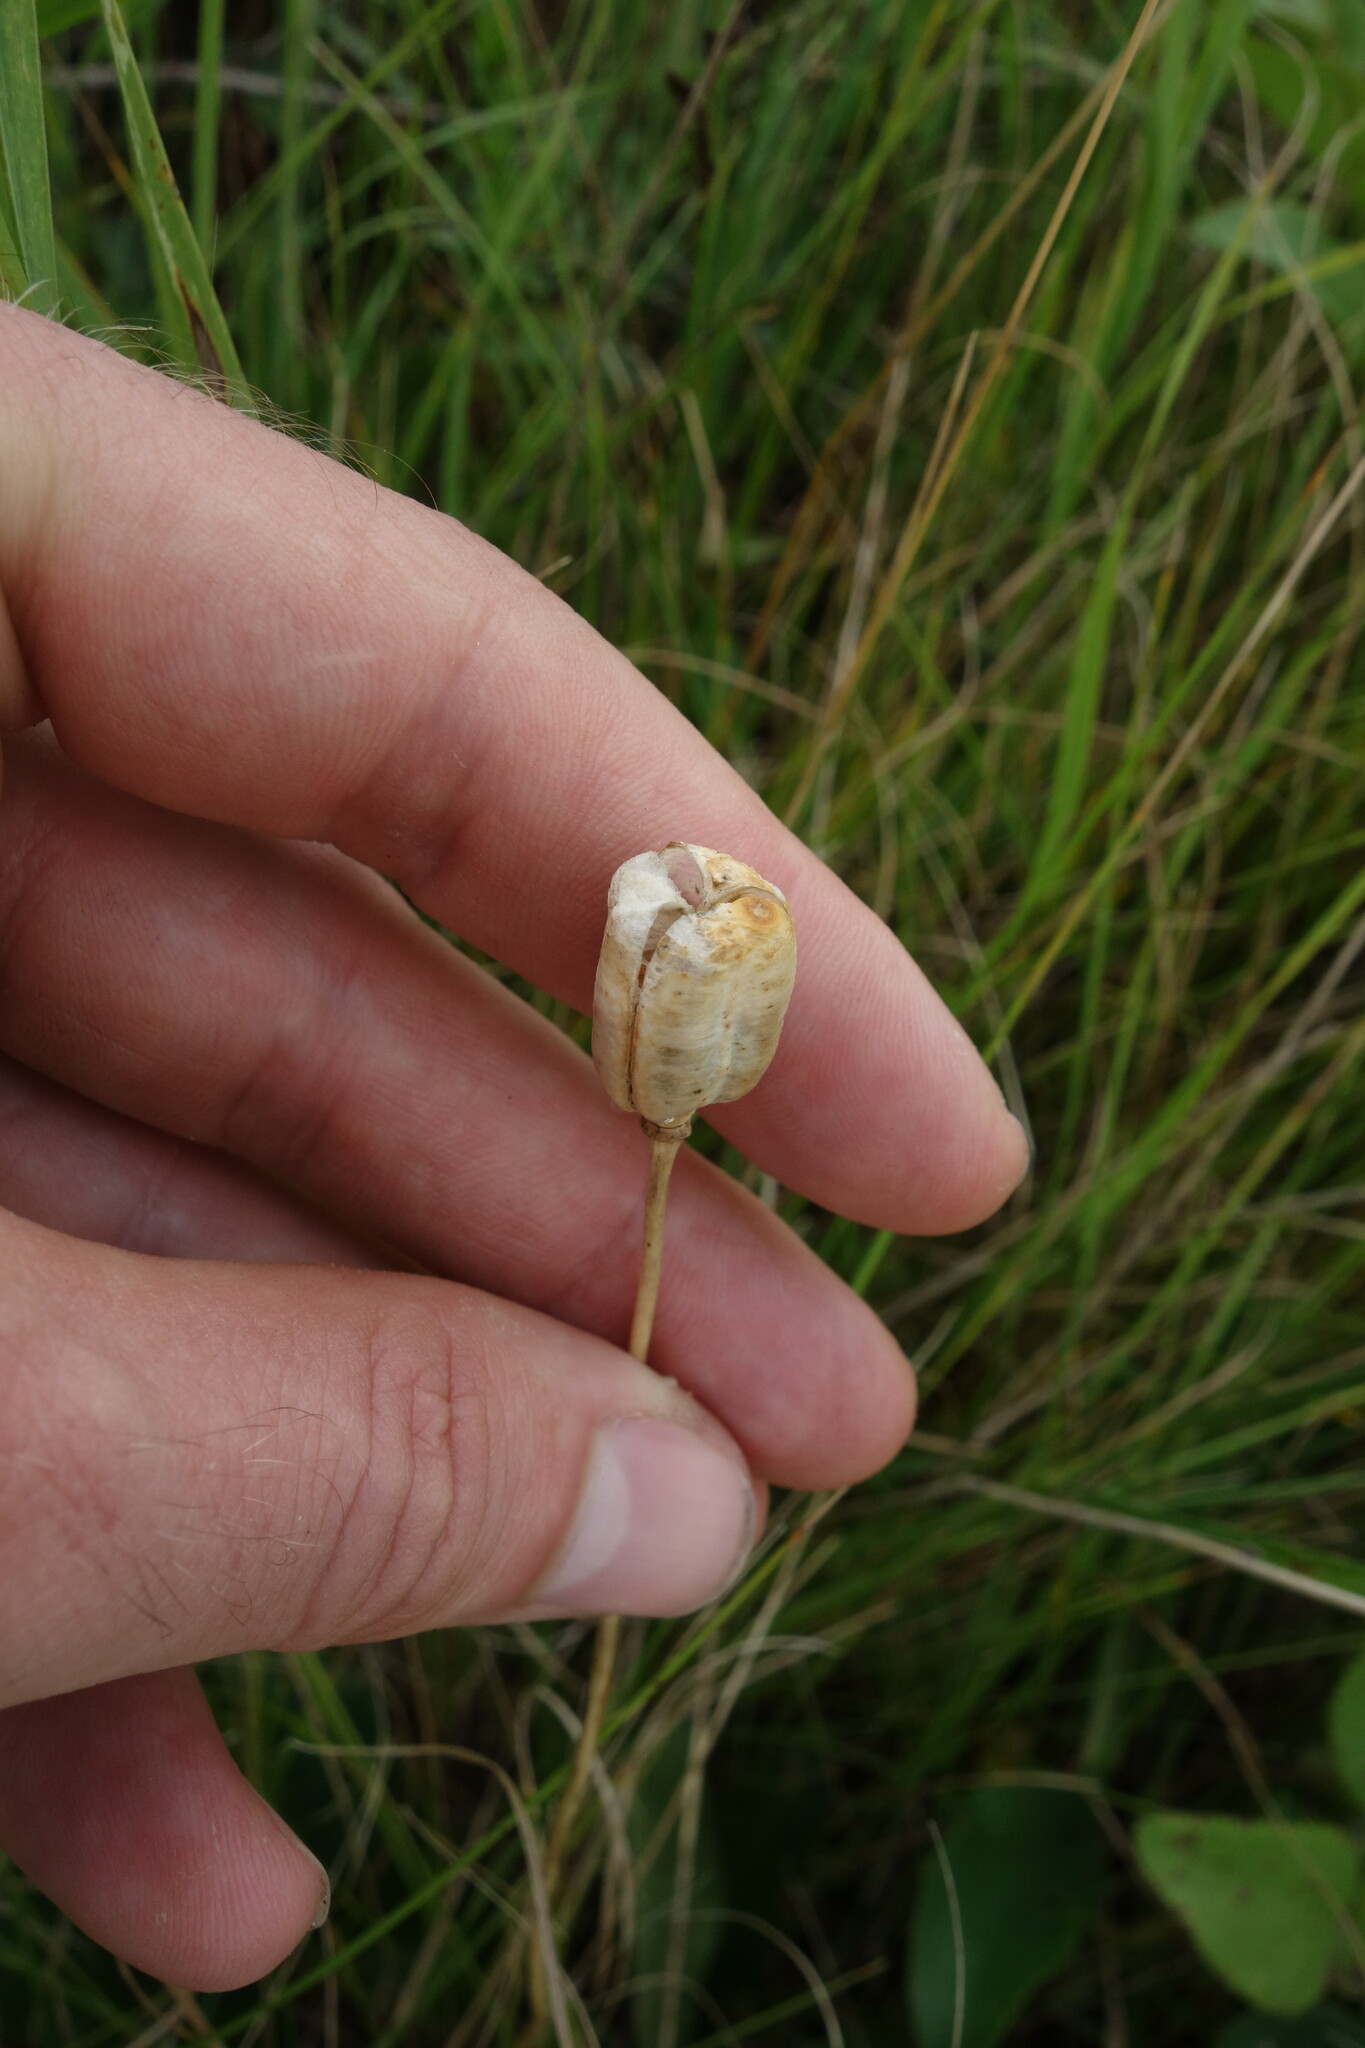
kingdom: Plantae
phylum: Tracheophyta
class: Liliopsida
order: Liliales
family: Liliaceae
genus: Fritillaria
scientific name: Fritillaria meleagroides
